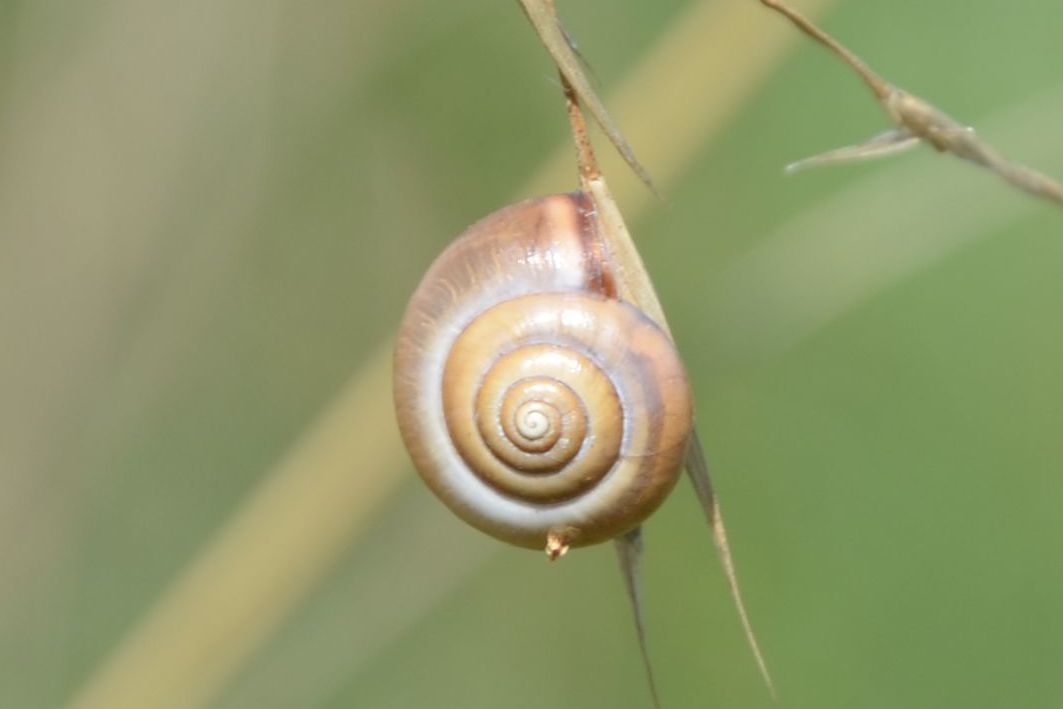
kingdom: Animalia
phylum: Mollusca
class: Gastropoda
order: Stylommatophora
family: Hygromiidae
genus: Monacha
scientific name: Monacha cartusiana
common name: Carthusian snail
